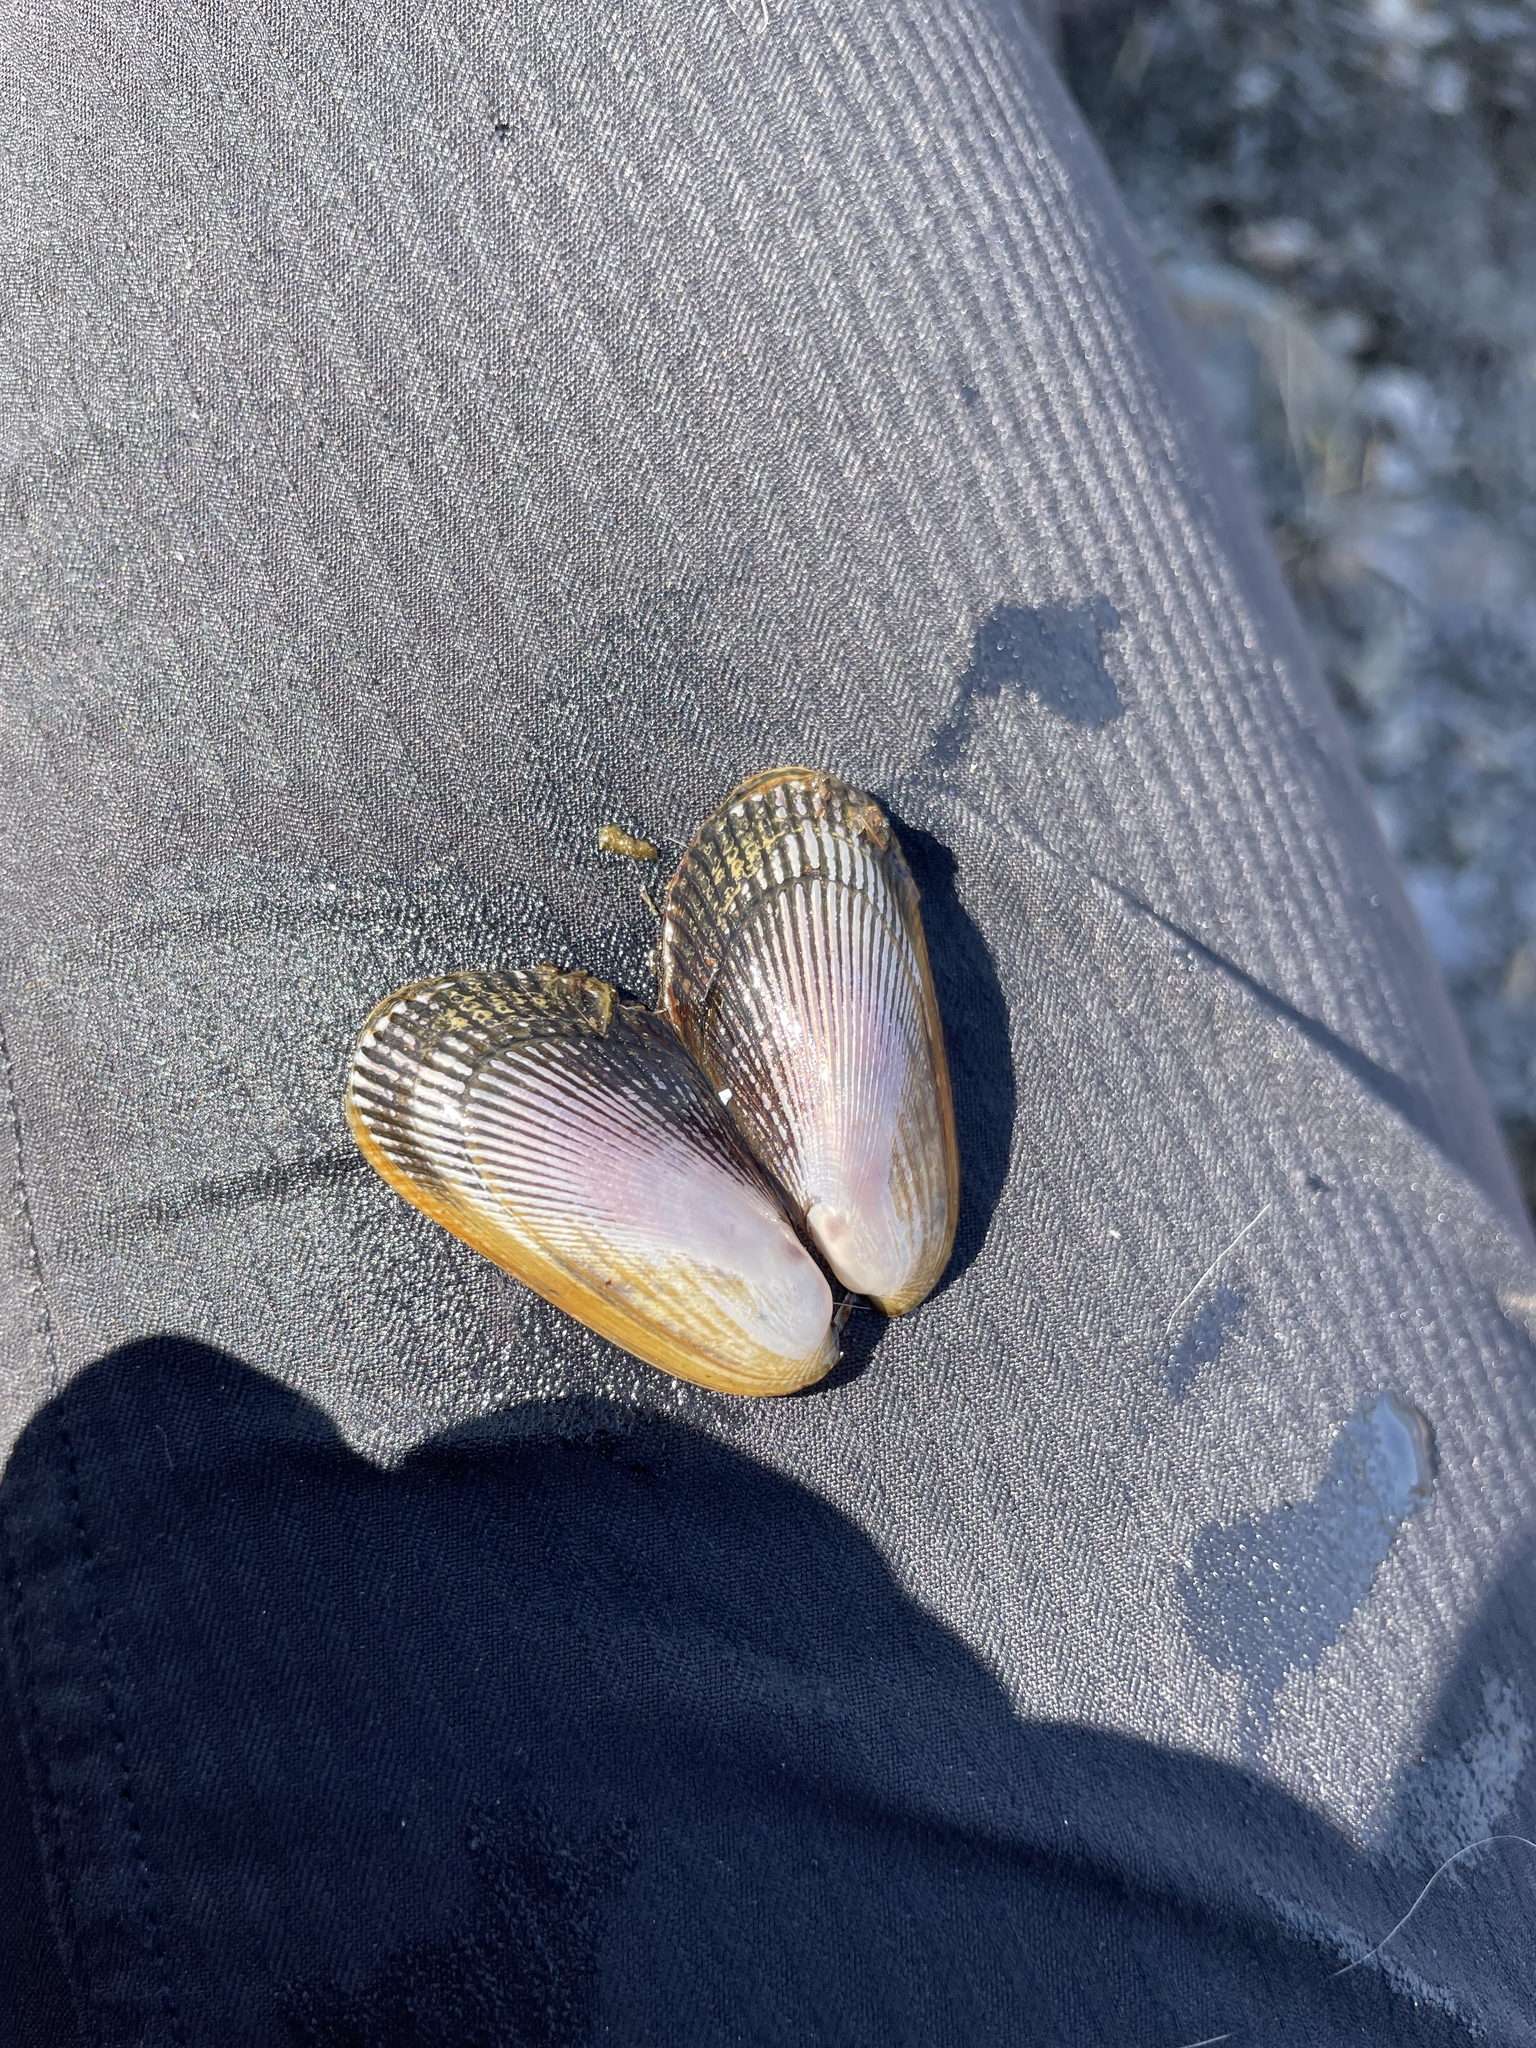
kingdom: Animalia
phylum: Mollusca
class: Bivalvia
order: Mytilida
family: Mytilidae
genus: Geukensia
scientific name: Geukensia demissa
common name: Ribbed mussel
